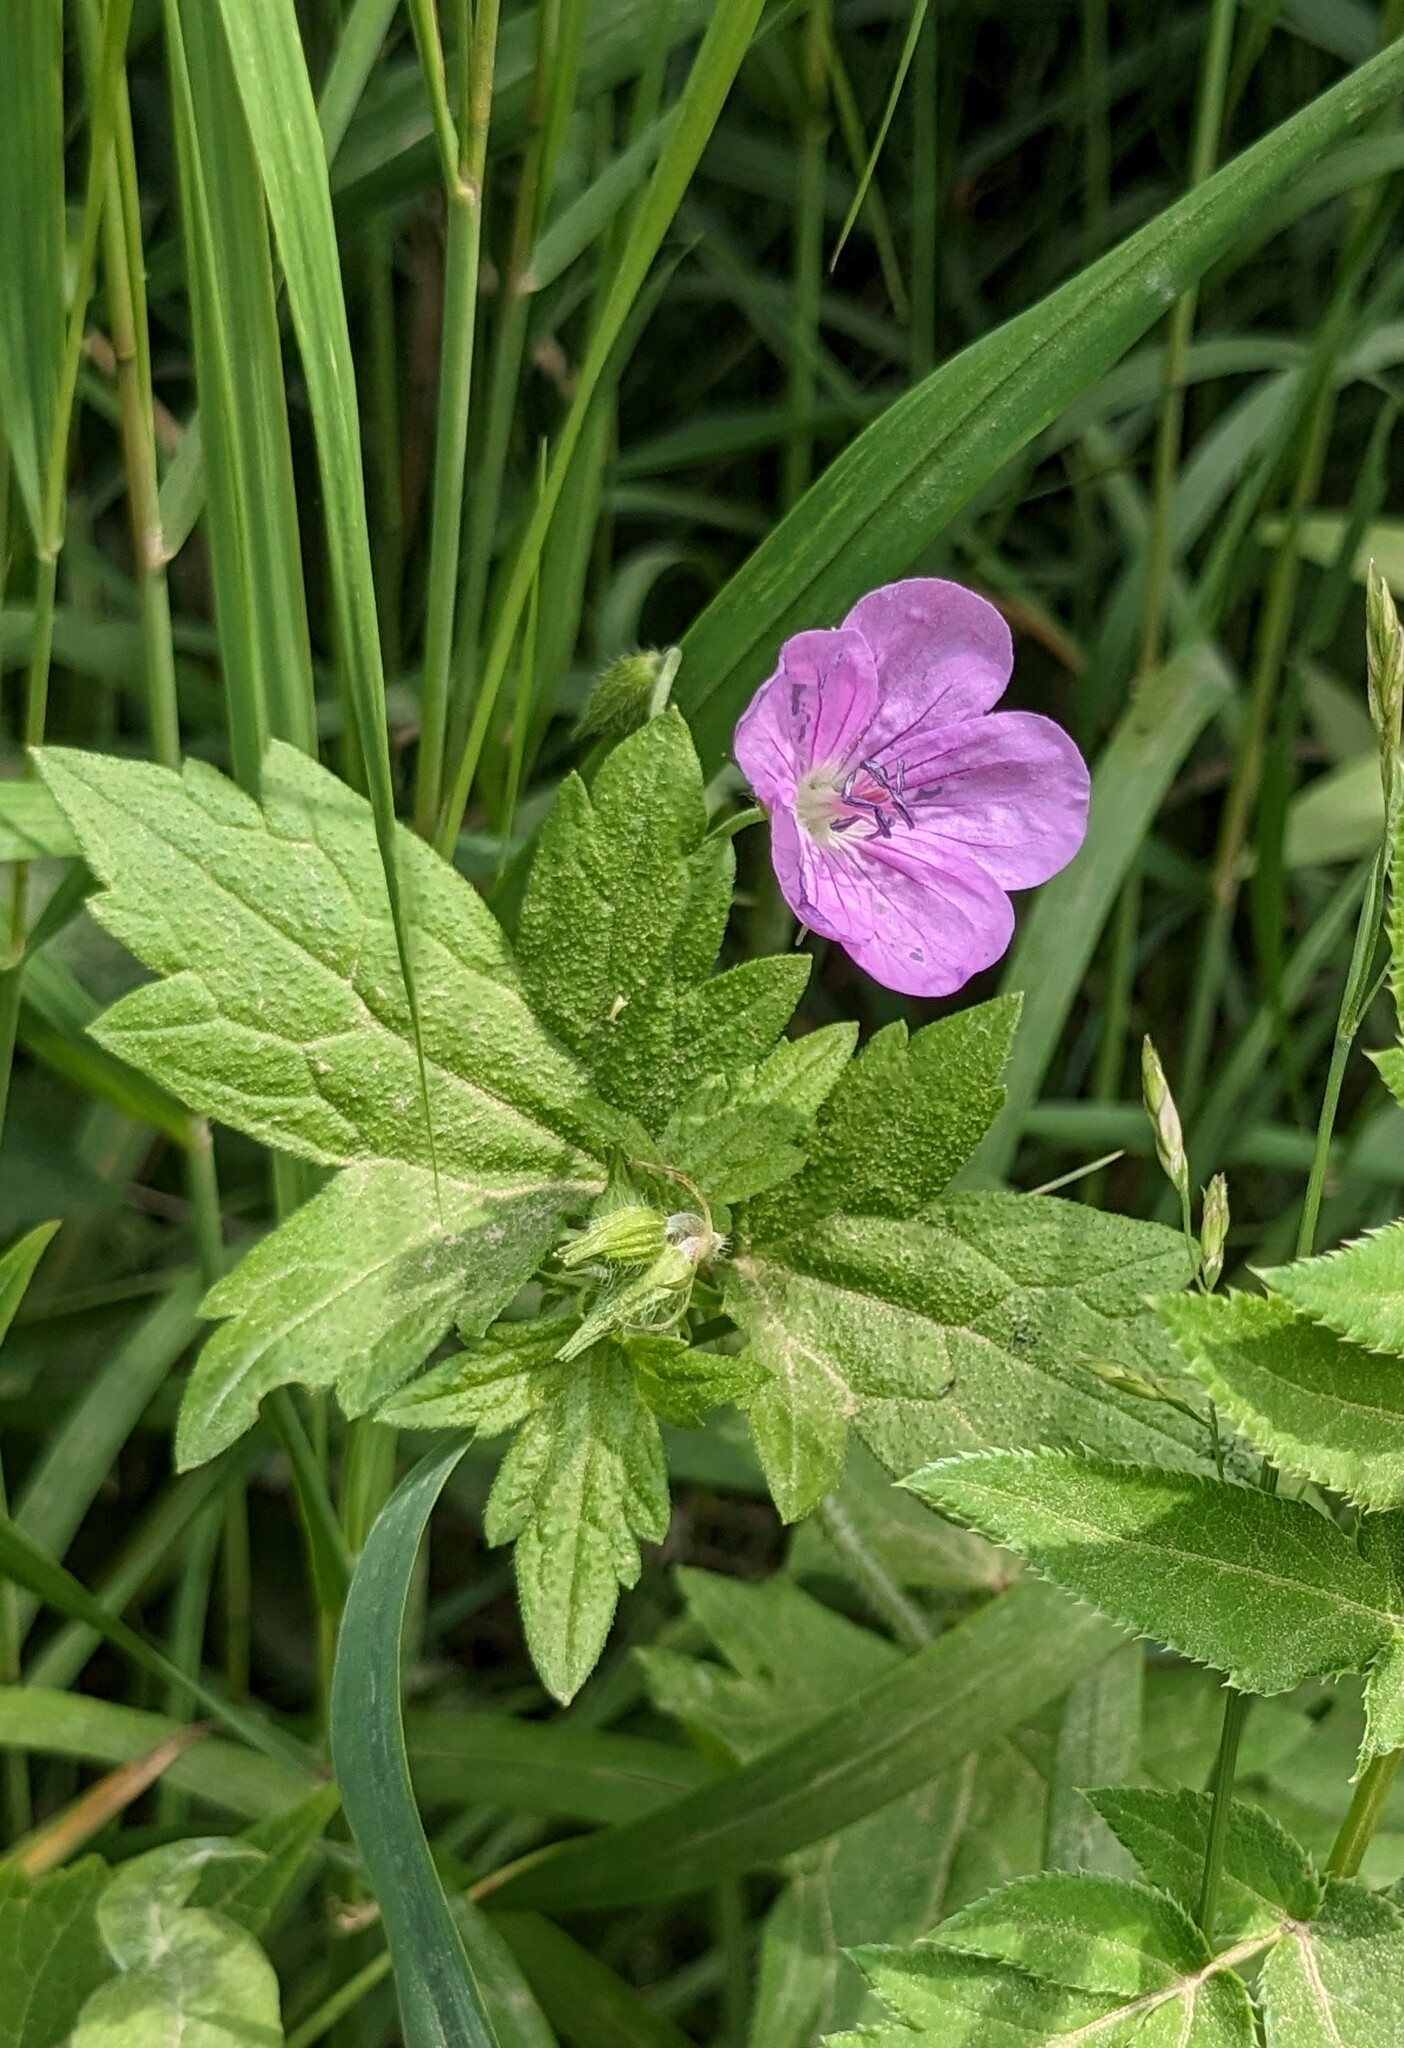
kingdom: Plantae
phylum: Tracheophyta
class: Magnoliopsida
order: Geraniales
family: Geraniaceae
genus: Geranium
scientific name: Geranium maximowiczii
